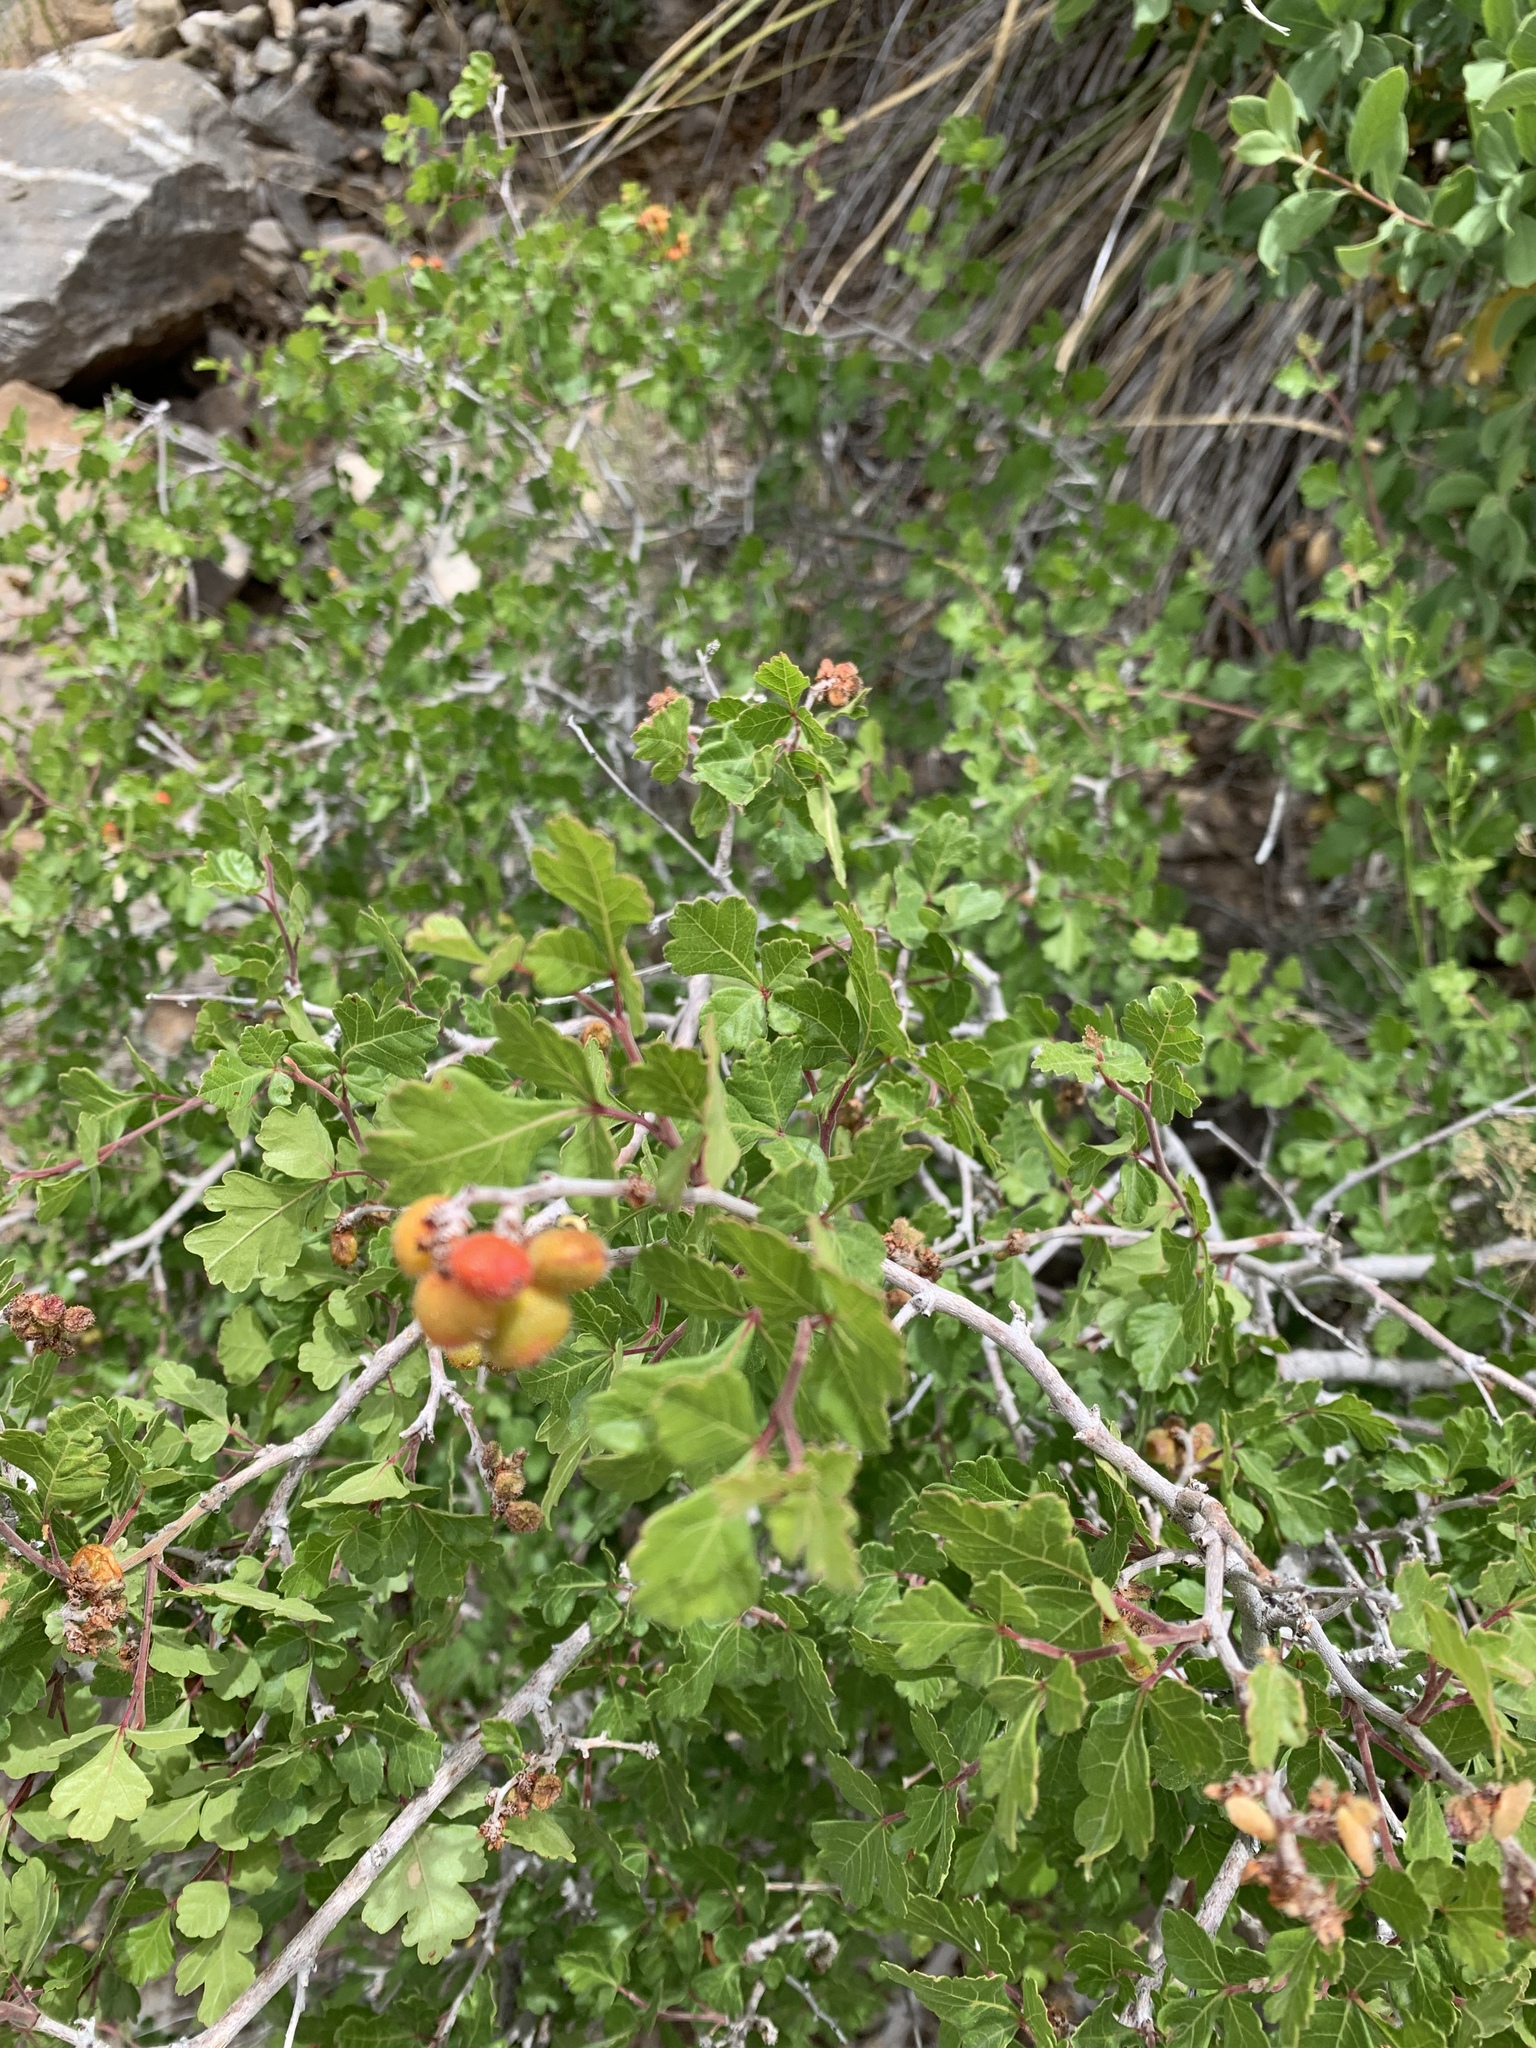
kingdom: Plantae
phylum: Tracheophyta
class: Magnoliopsida
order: Sapindales
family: Anacardiaceae
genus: Rhus
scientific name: Rhus aromatica
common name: Aromatic sumac
